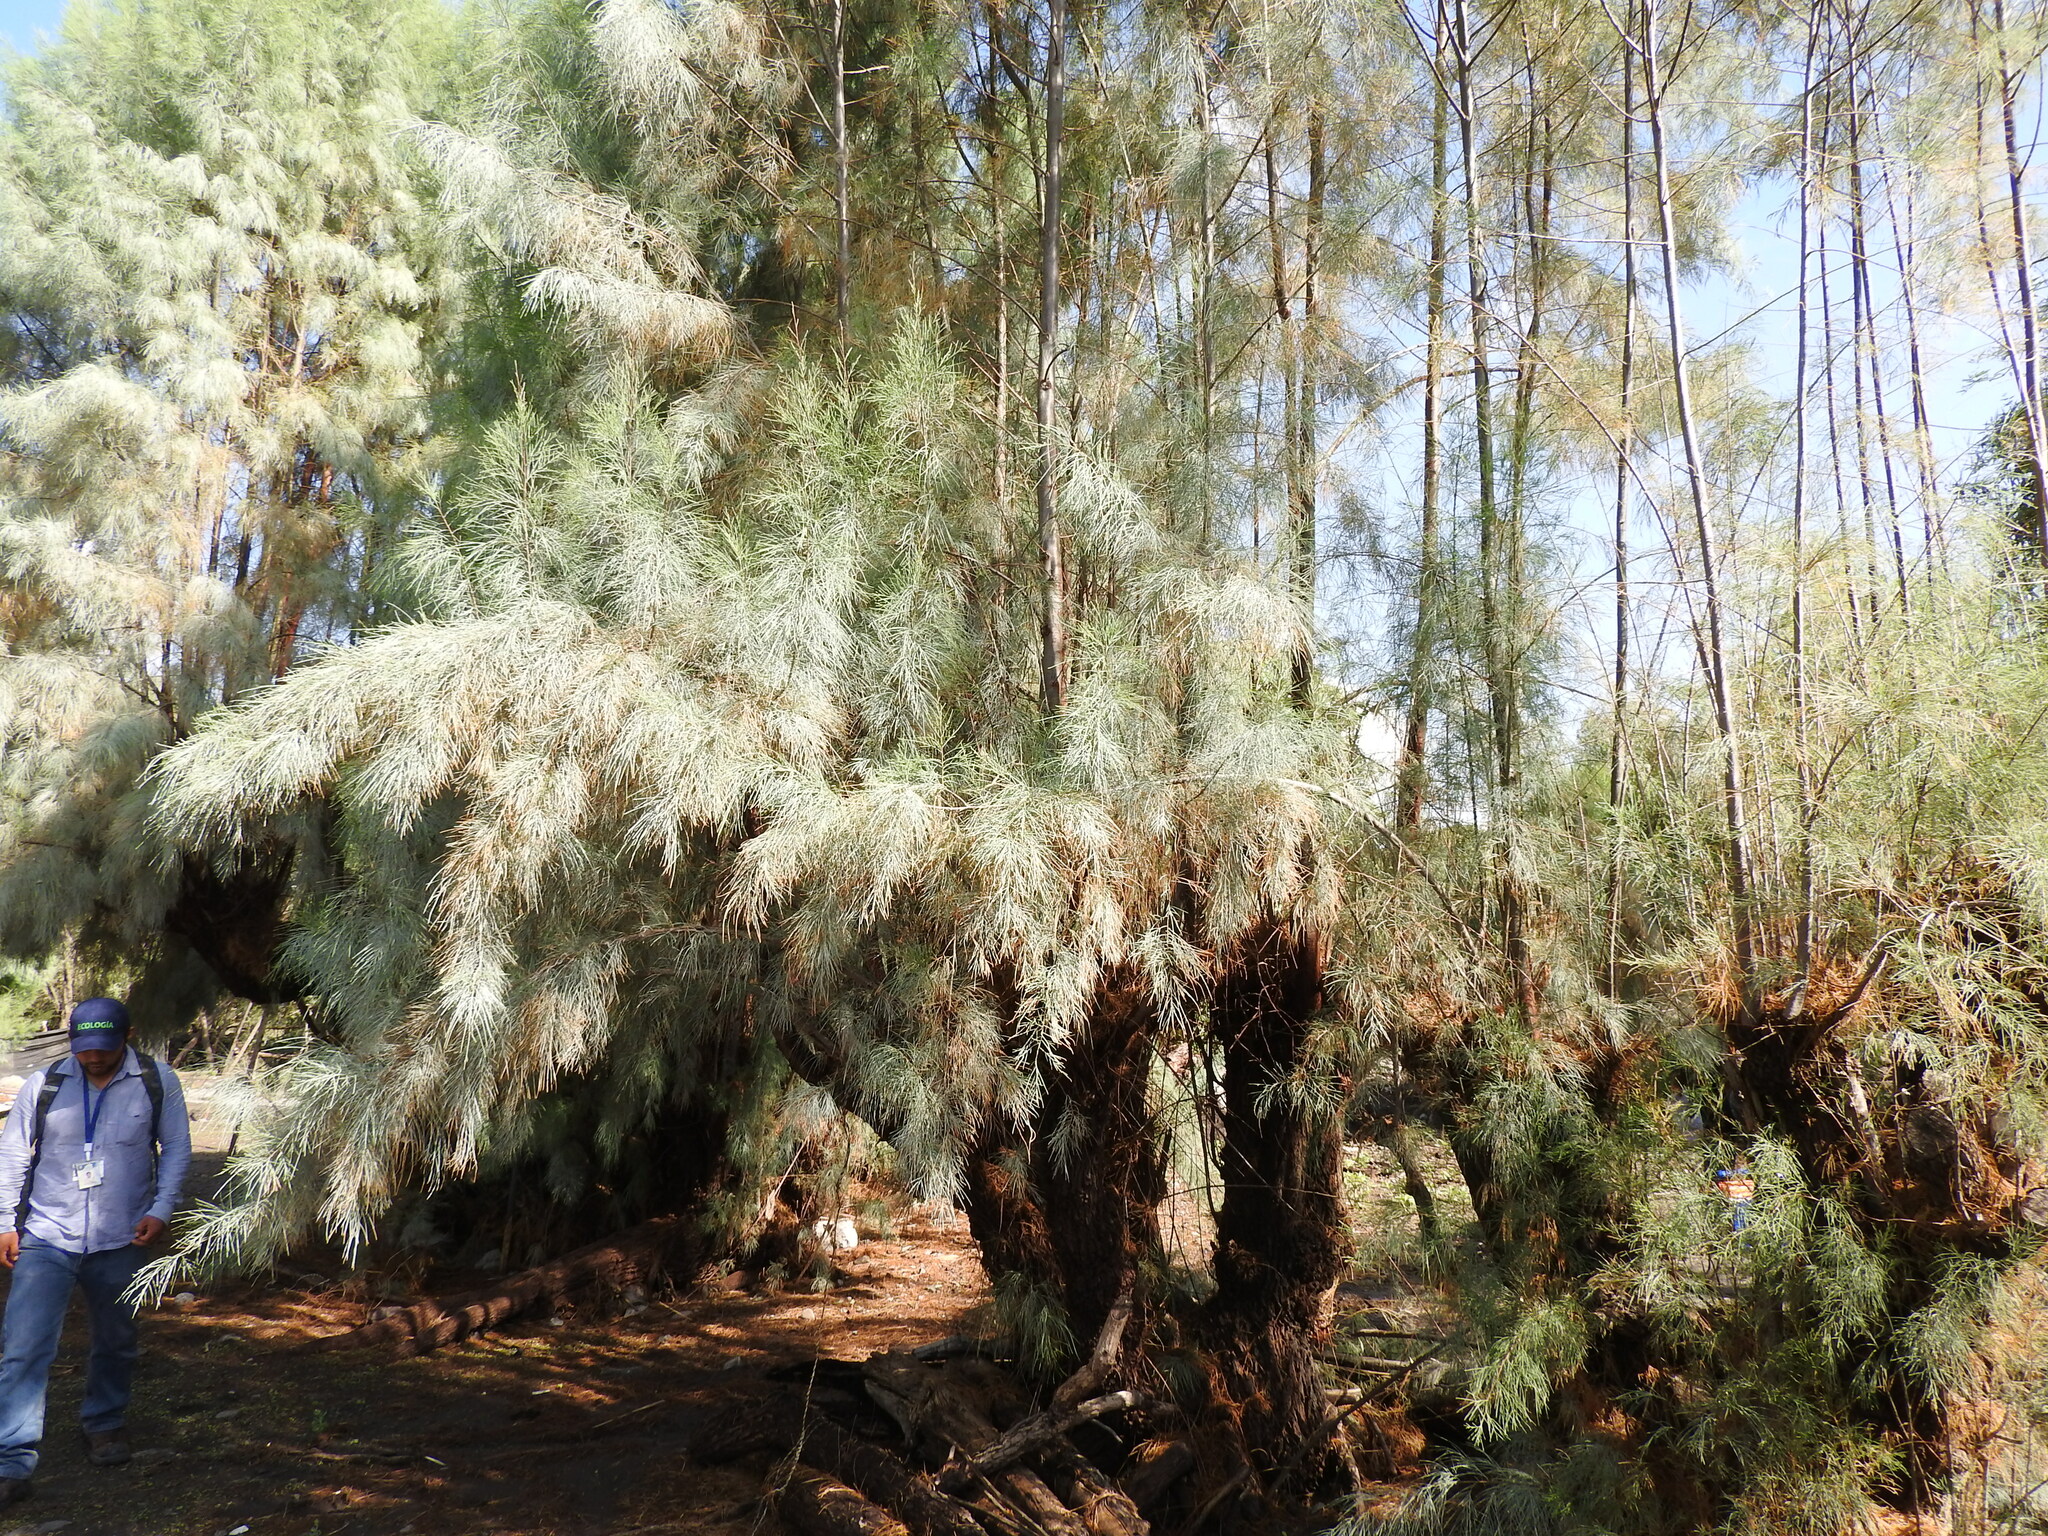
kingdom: Plantae
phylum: Tracheophyta
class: Magnoliopsida
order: Caryophyllales
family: Tamaricaceae
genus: Tamarix
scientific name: Tamarix aphylla
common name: Athel tamarisk
